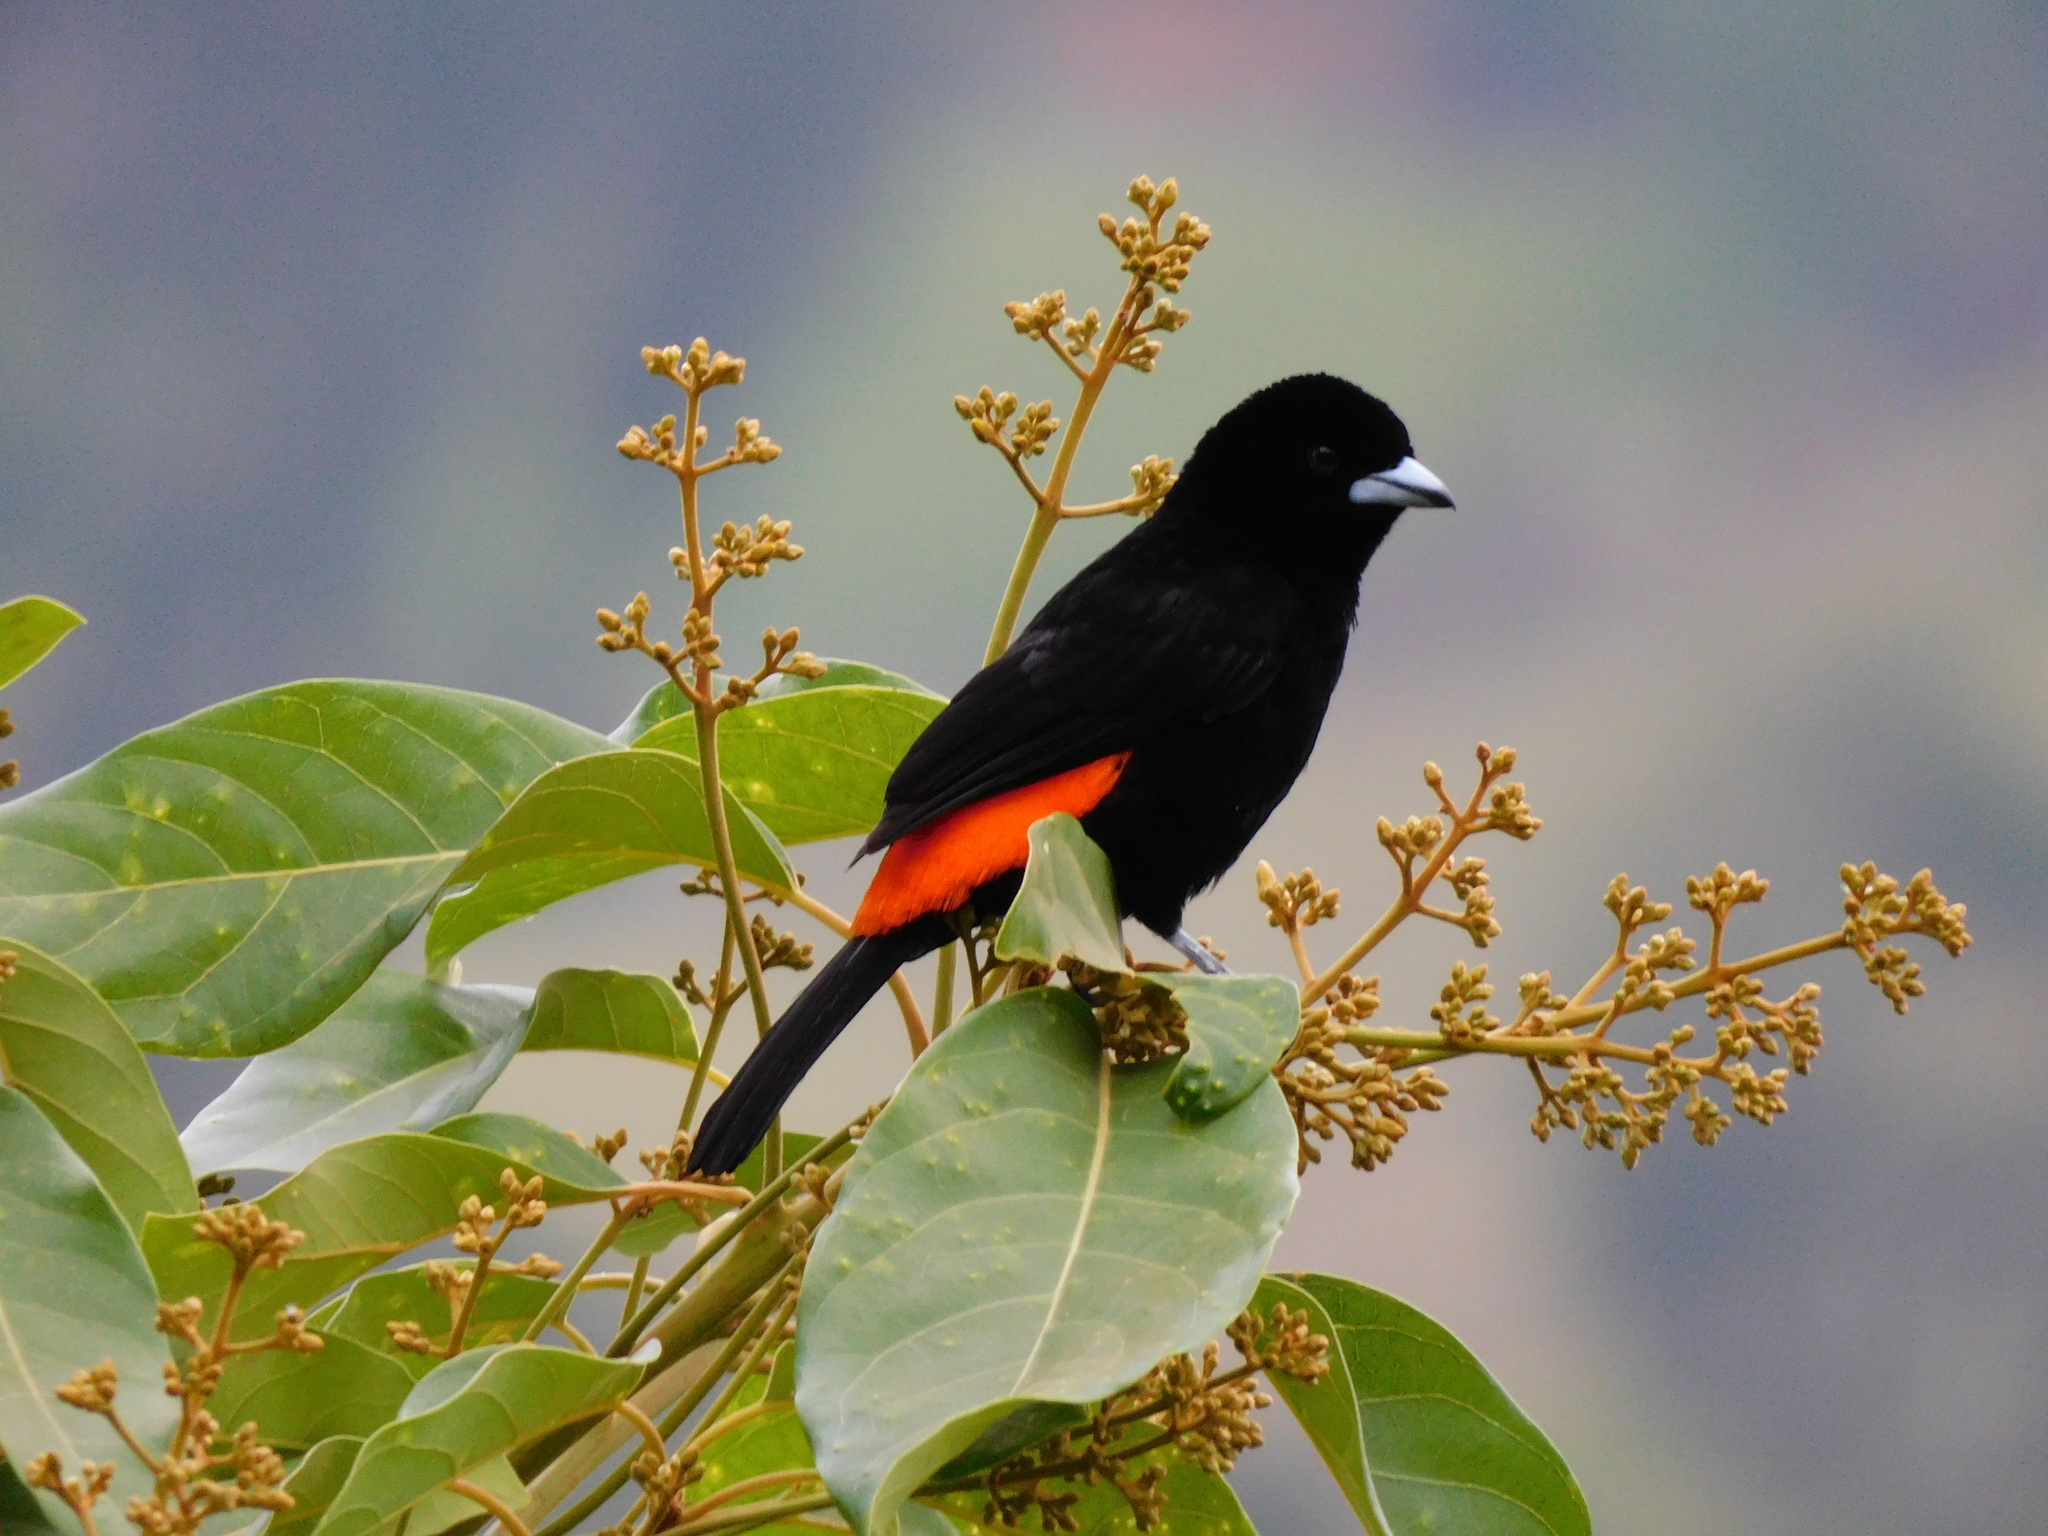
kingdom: Animalia
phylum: Chordata
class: Aves
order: Passeriformes
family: Thraupidae
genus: Ramphocelus
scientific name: Ramphocelus flammigerus
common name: Flame-rumped tanager
